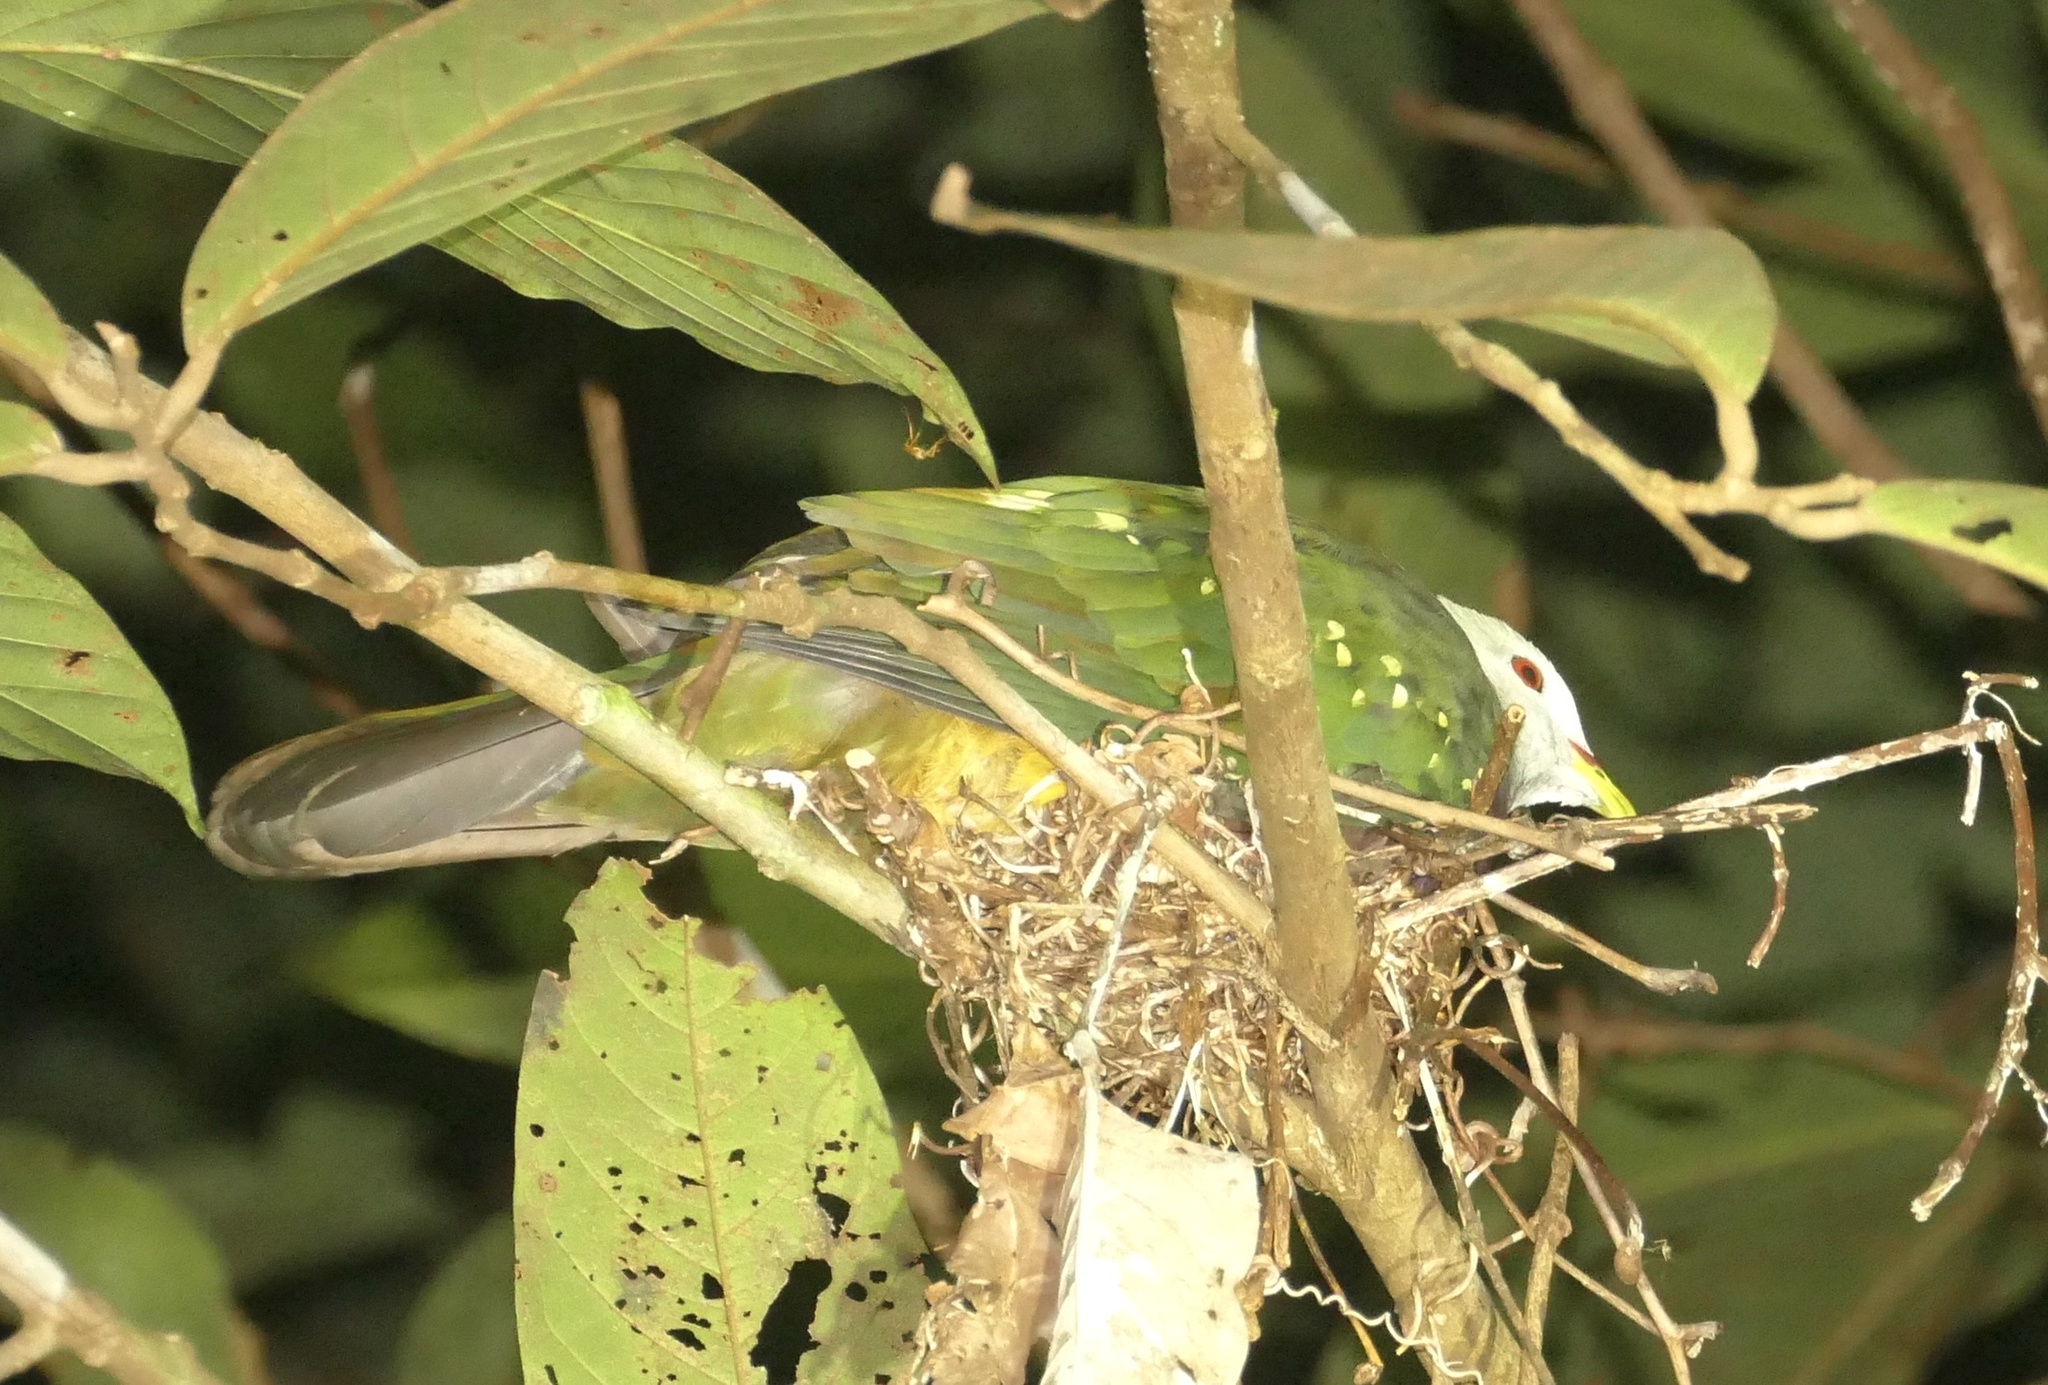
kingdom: Animalia
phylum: Chordata
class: Aves
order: Columbiformes
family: Columbidae
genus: Ptilinopus
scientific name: Ptilinopus magnificus
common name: Wompoo fruit dove
